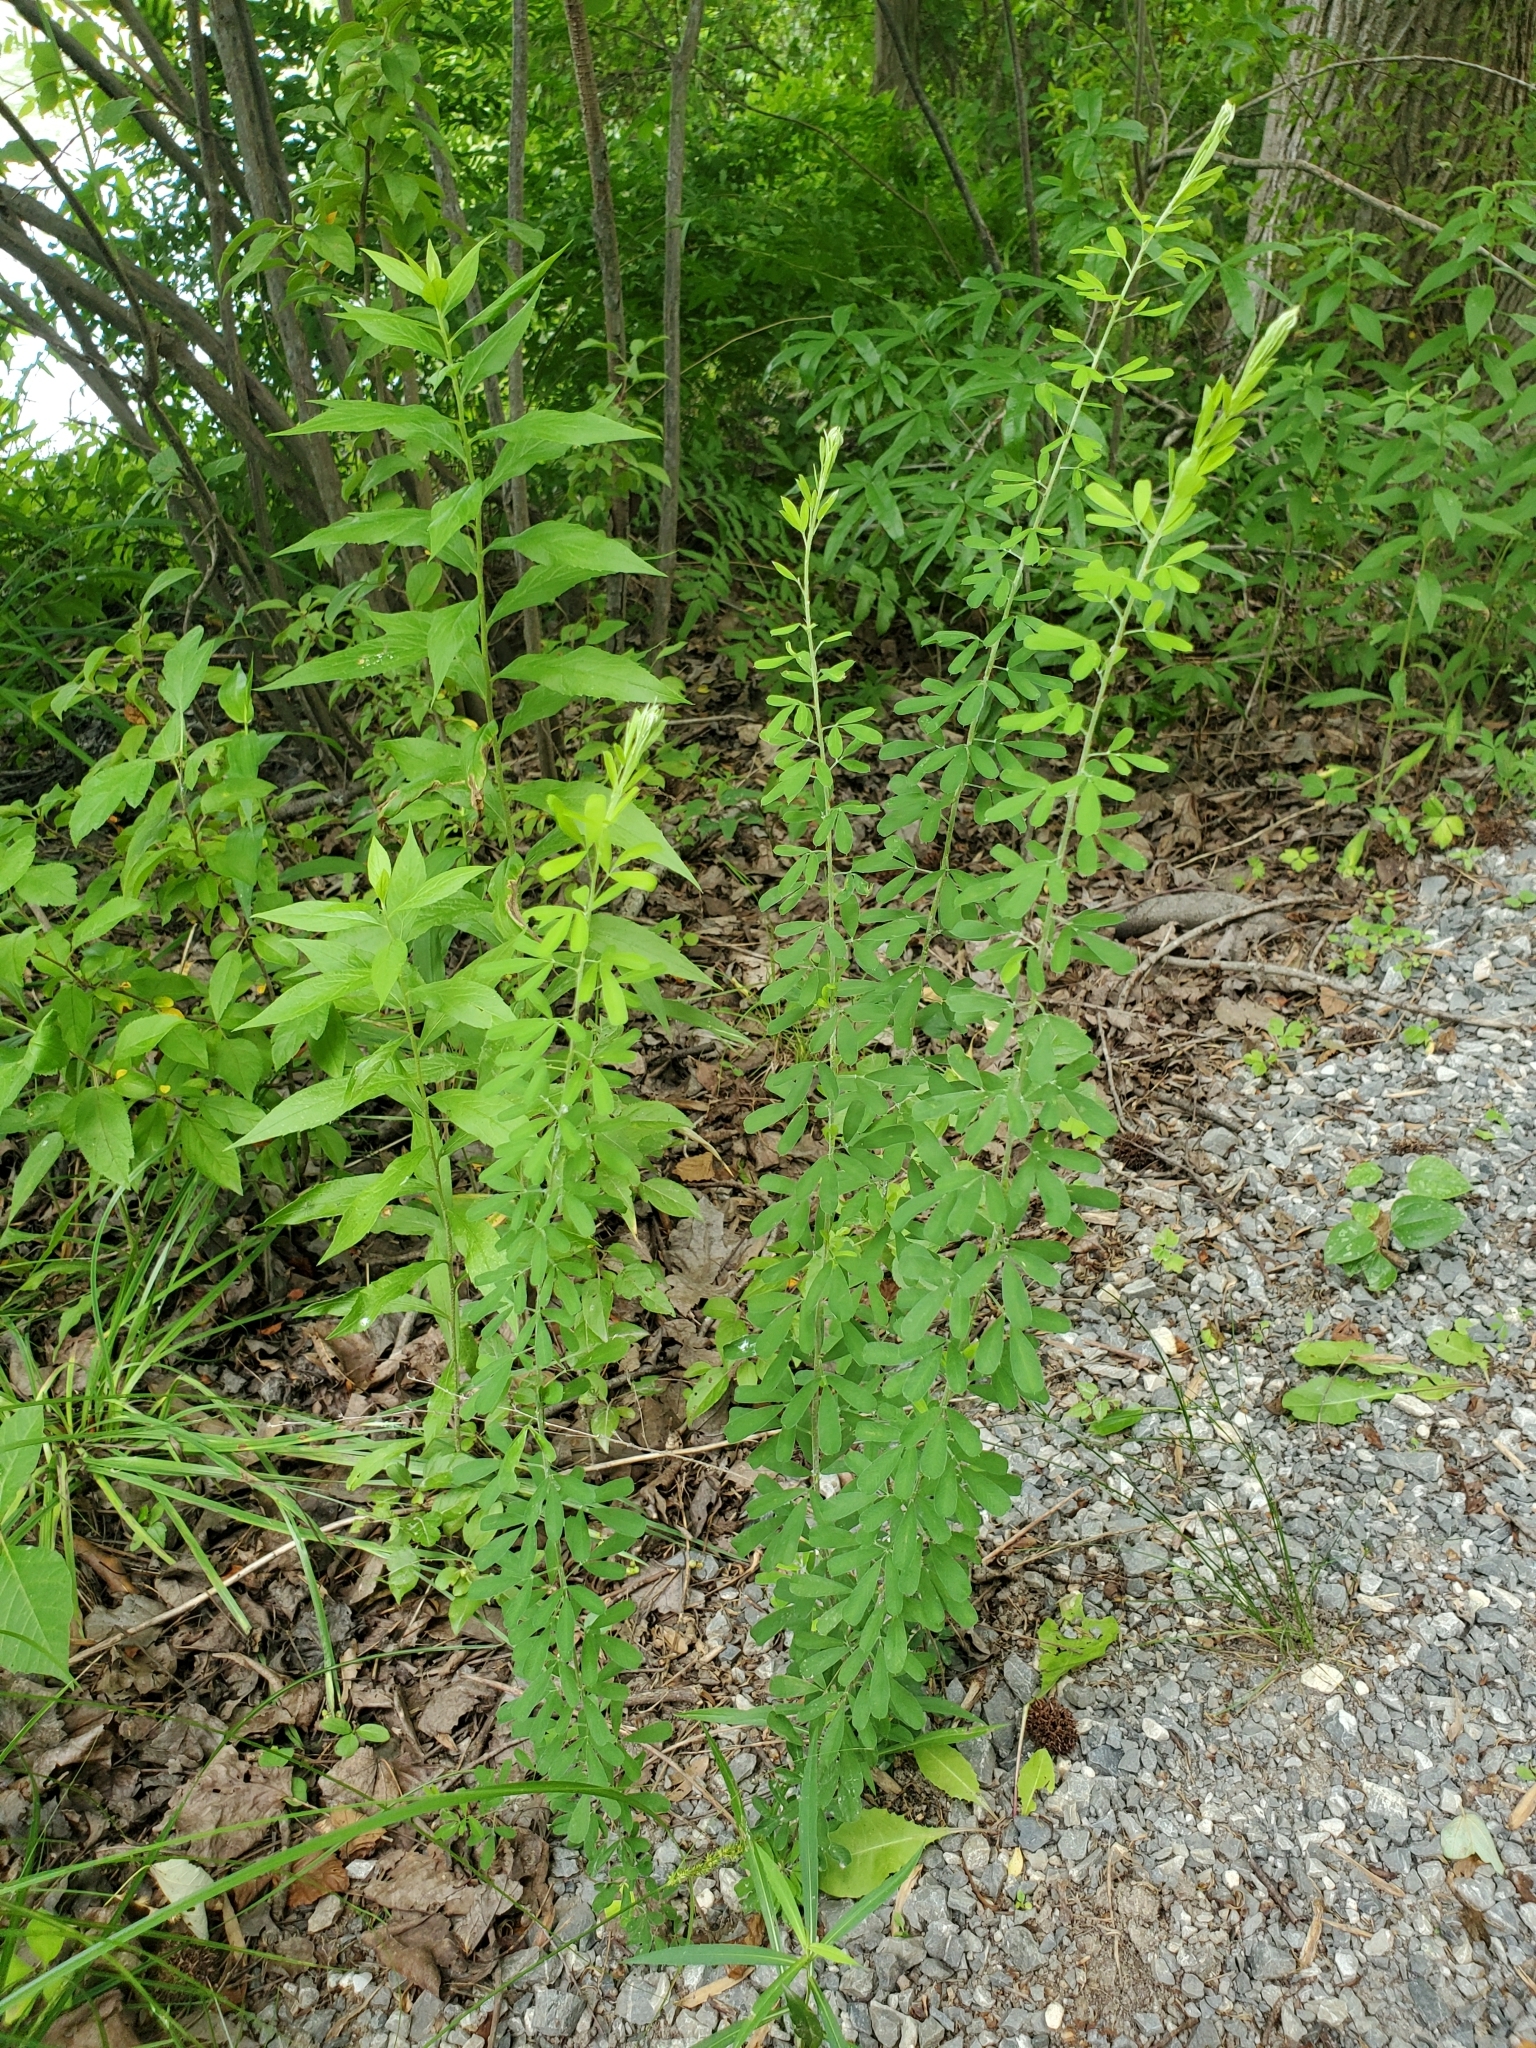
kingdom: Plantae
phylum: Tracheophyta
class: Magnoliopsida
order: Fabales
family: Fabaceae
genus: Lespedeza
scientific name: Lespedeza cuneata
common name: Chinese bush-clover
